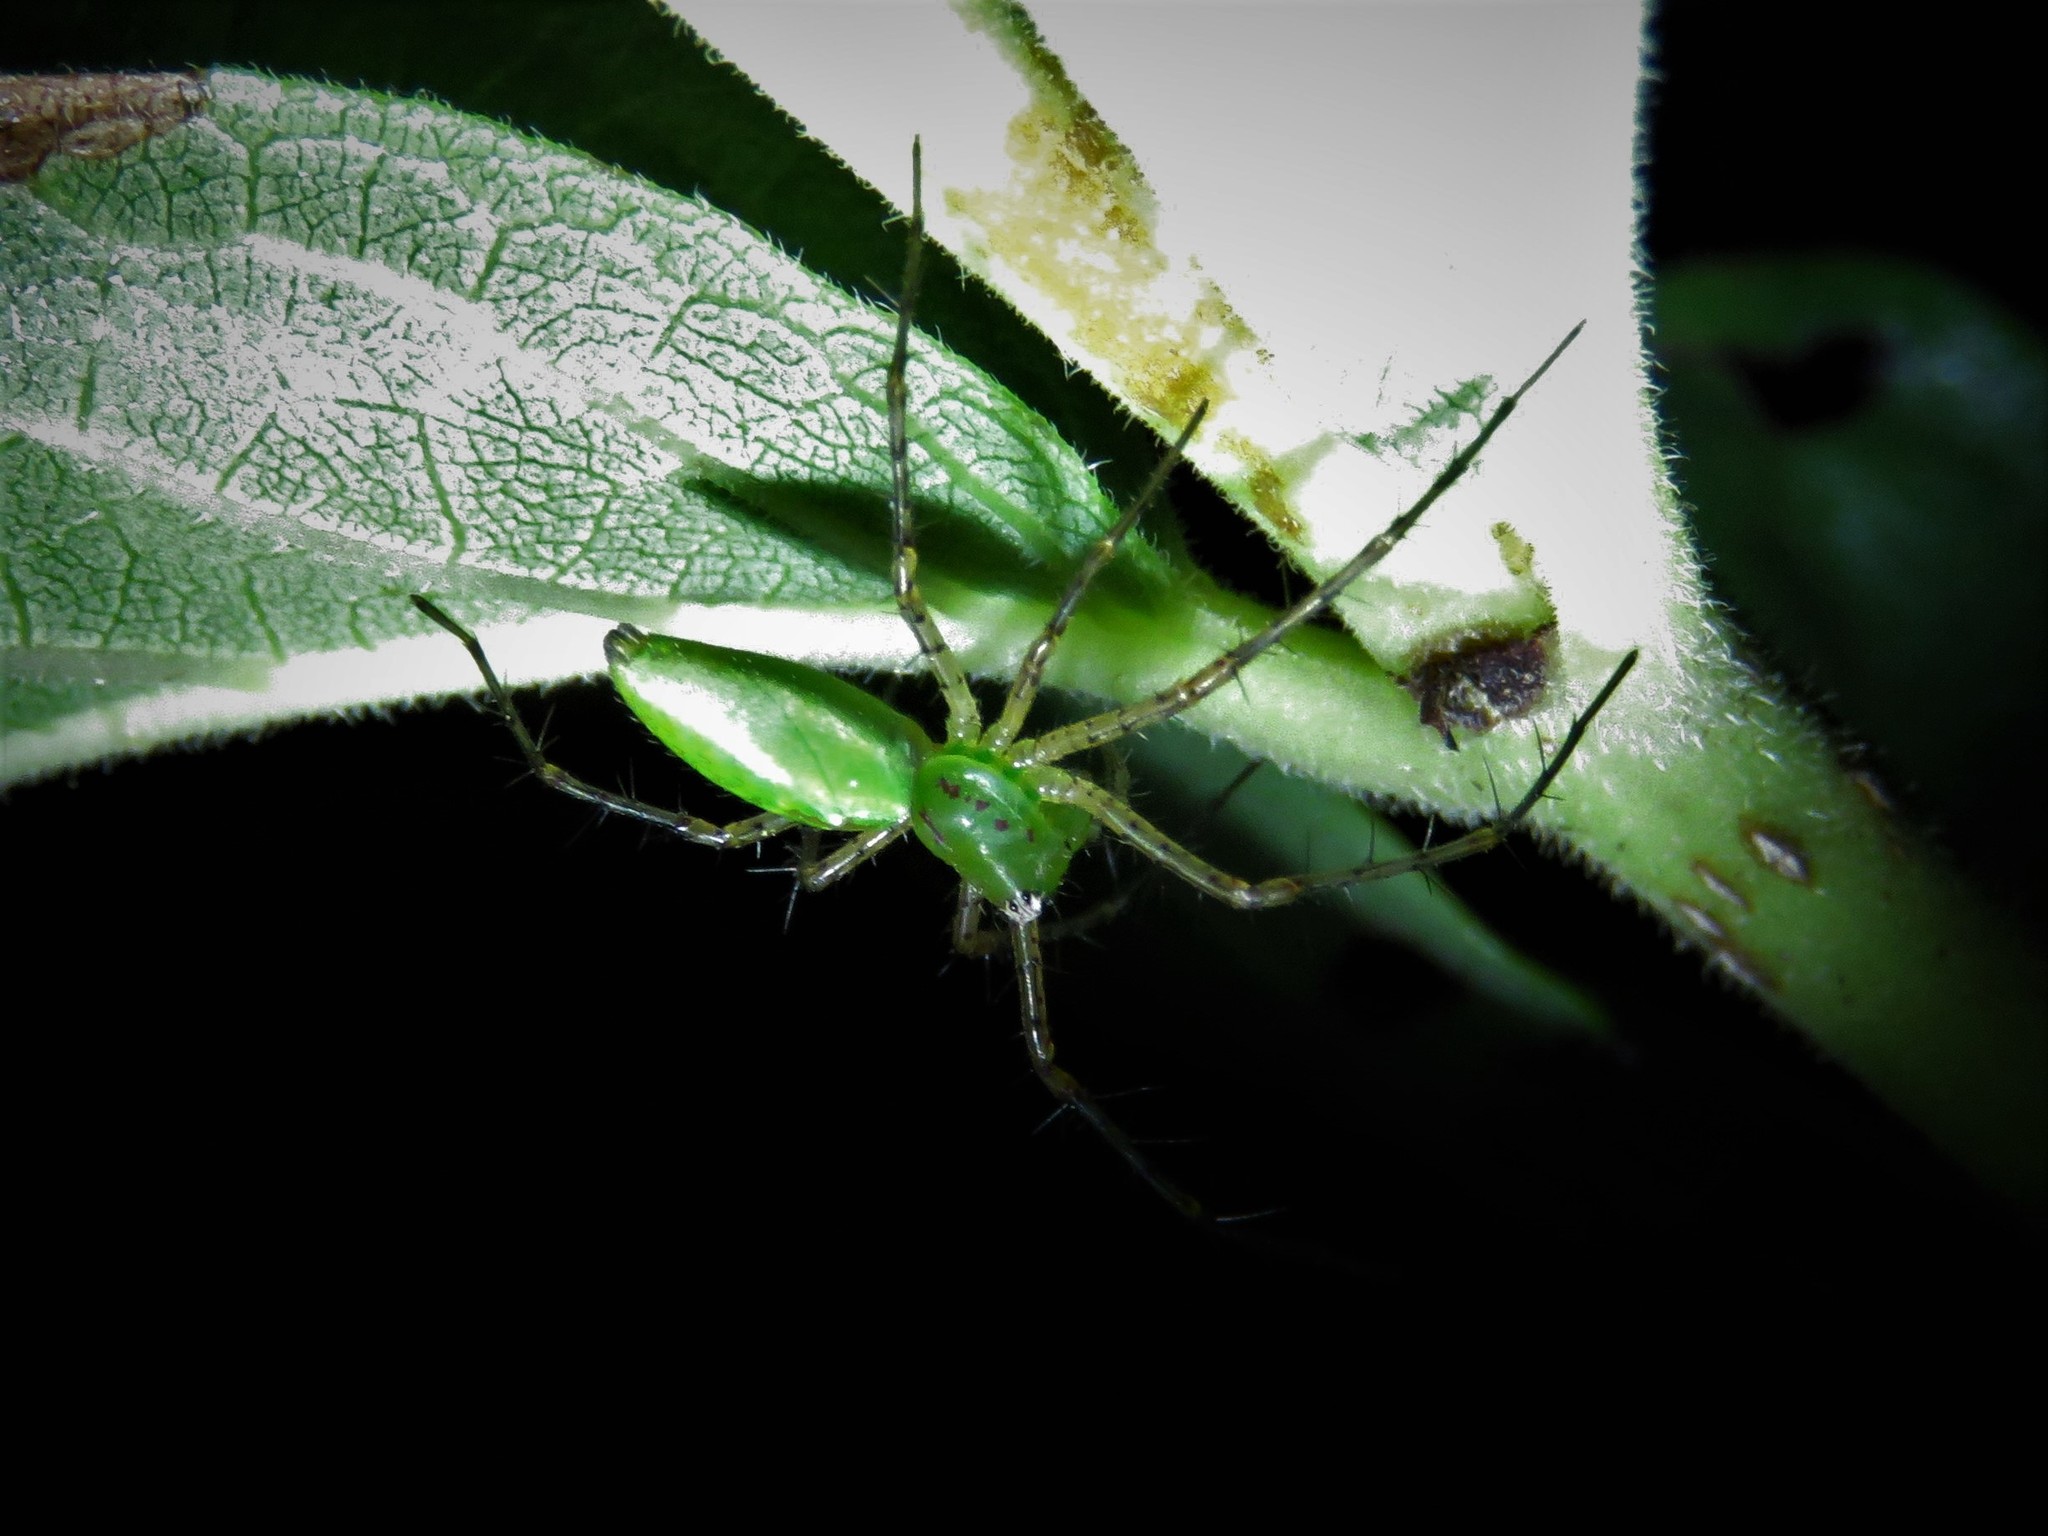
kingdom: Animalia
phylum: Arthropoda
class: Arachnida
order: Araneae
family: Oxyopidae
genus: Peucetia
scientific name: Peucetia viridans
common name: Lynx spiders
